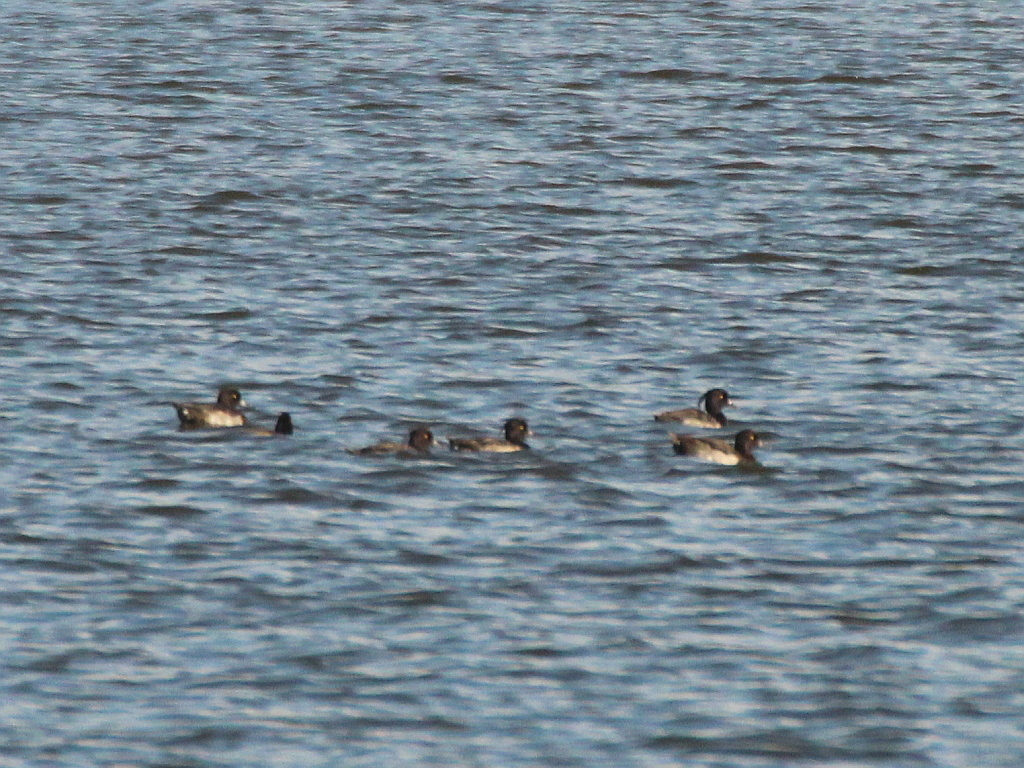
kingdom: Animalia
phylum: Chordata
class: Aves
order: Anseriformes
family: Anatidae
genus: Aythya
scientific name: Aythya fuligula
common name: Tufted duck
